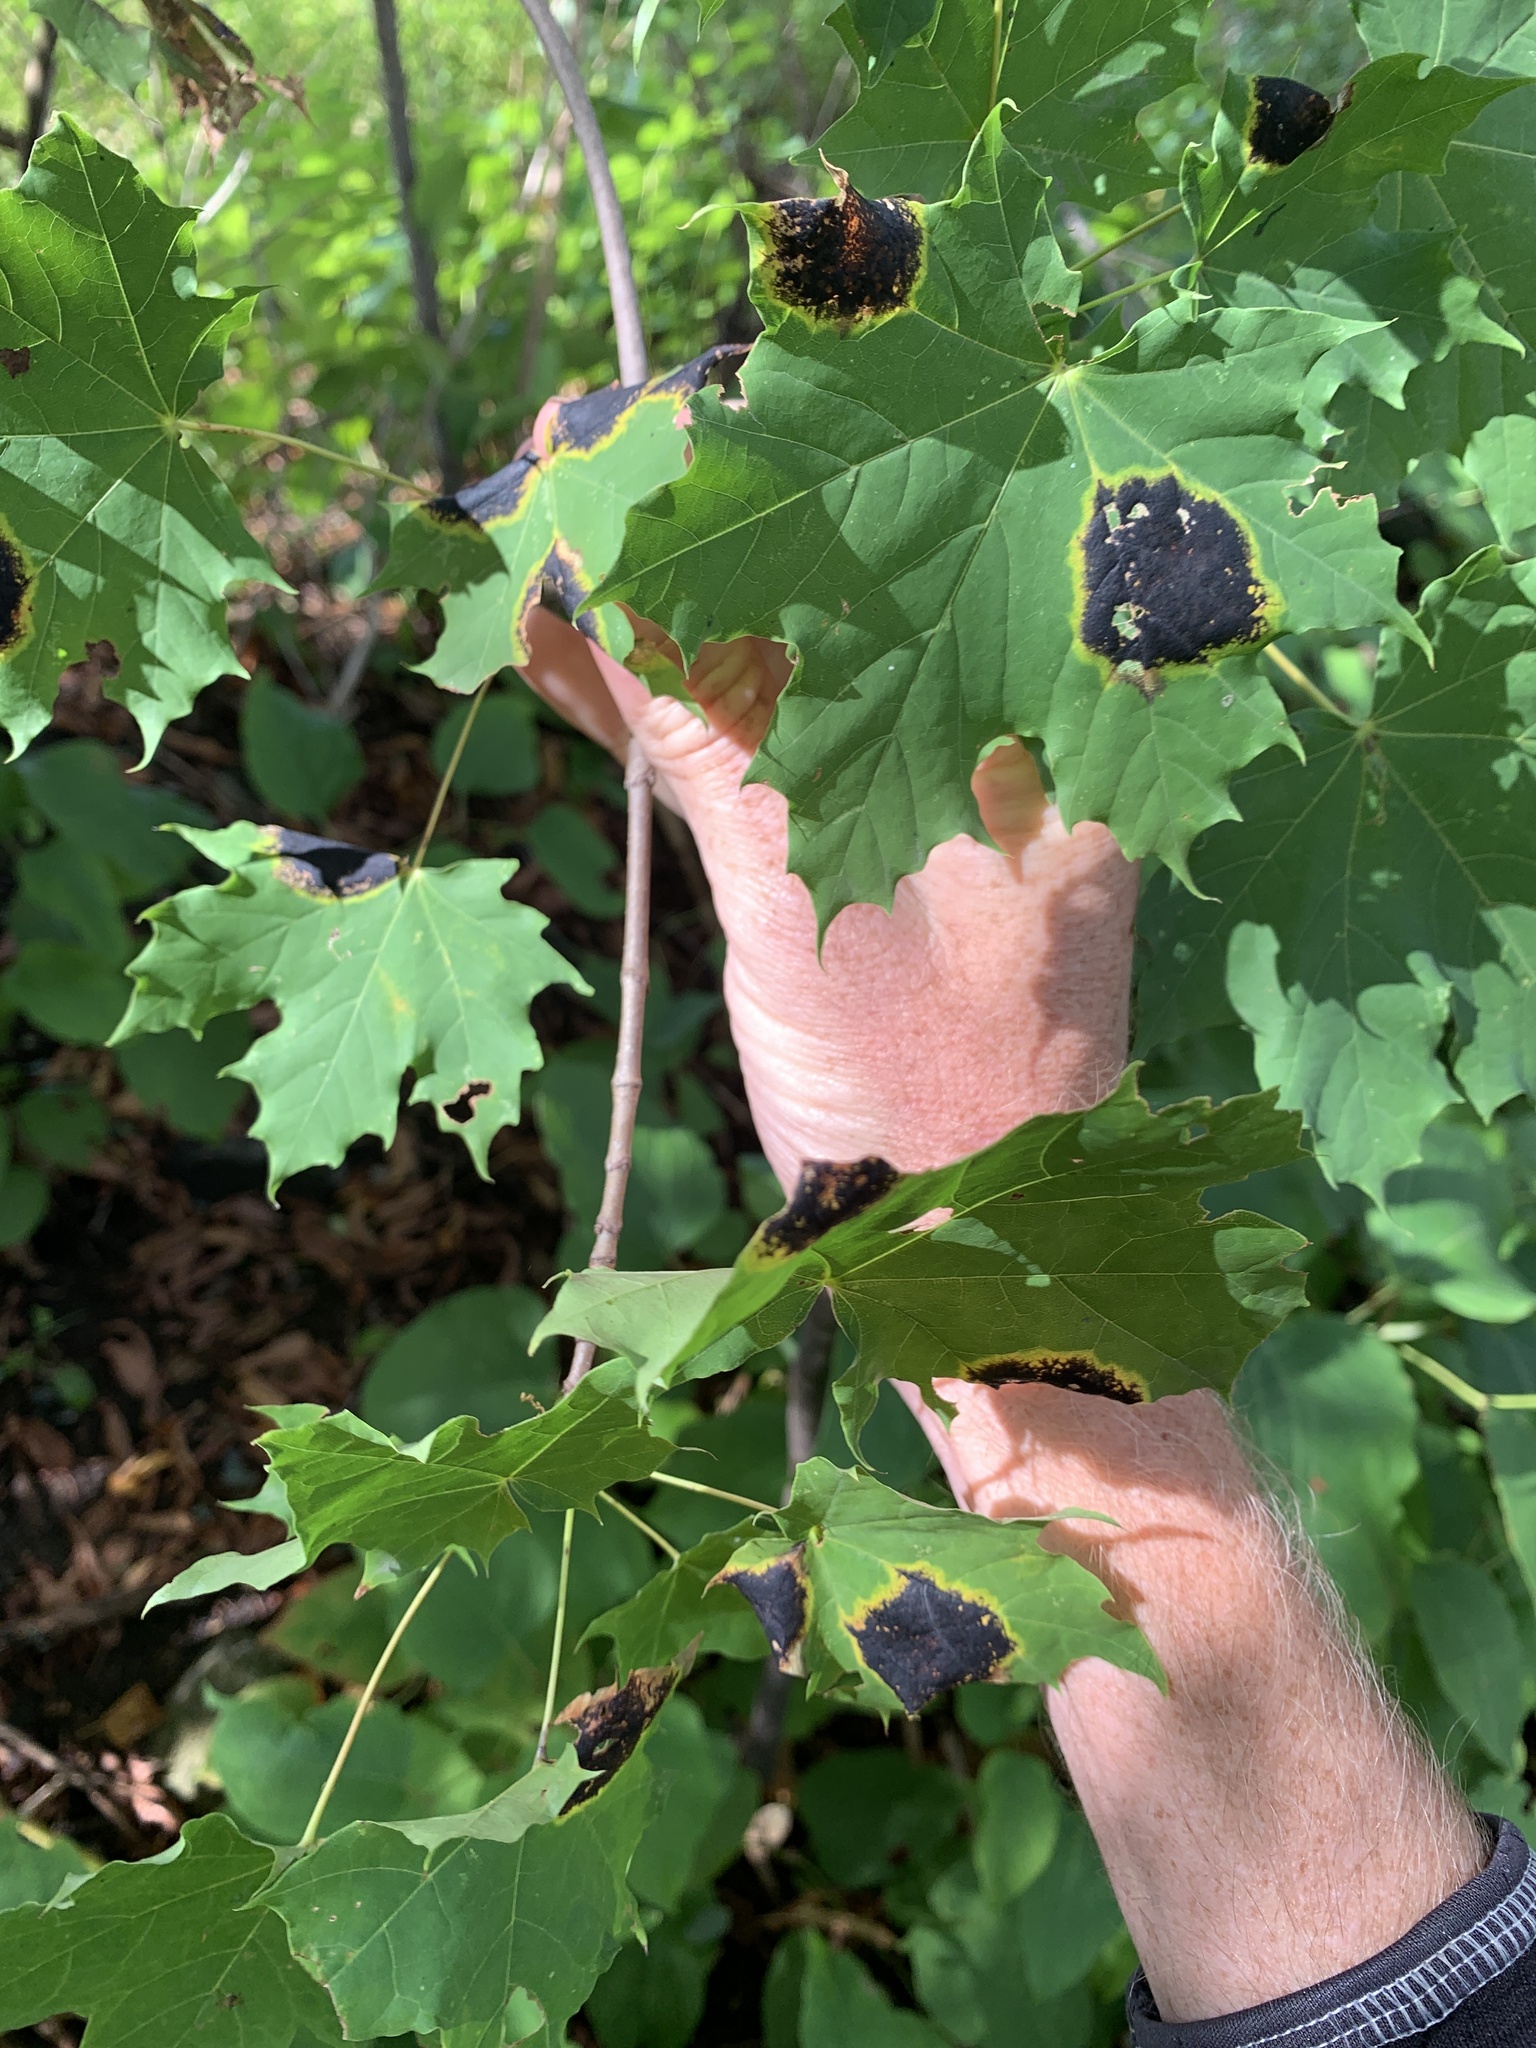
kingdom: Plantae
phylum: Tracheophyta
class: Magnoliopsida
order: Sapindales
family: Sapindaceae
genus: Acer
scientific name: Acer platanoides
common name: Norway maple
